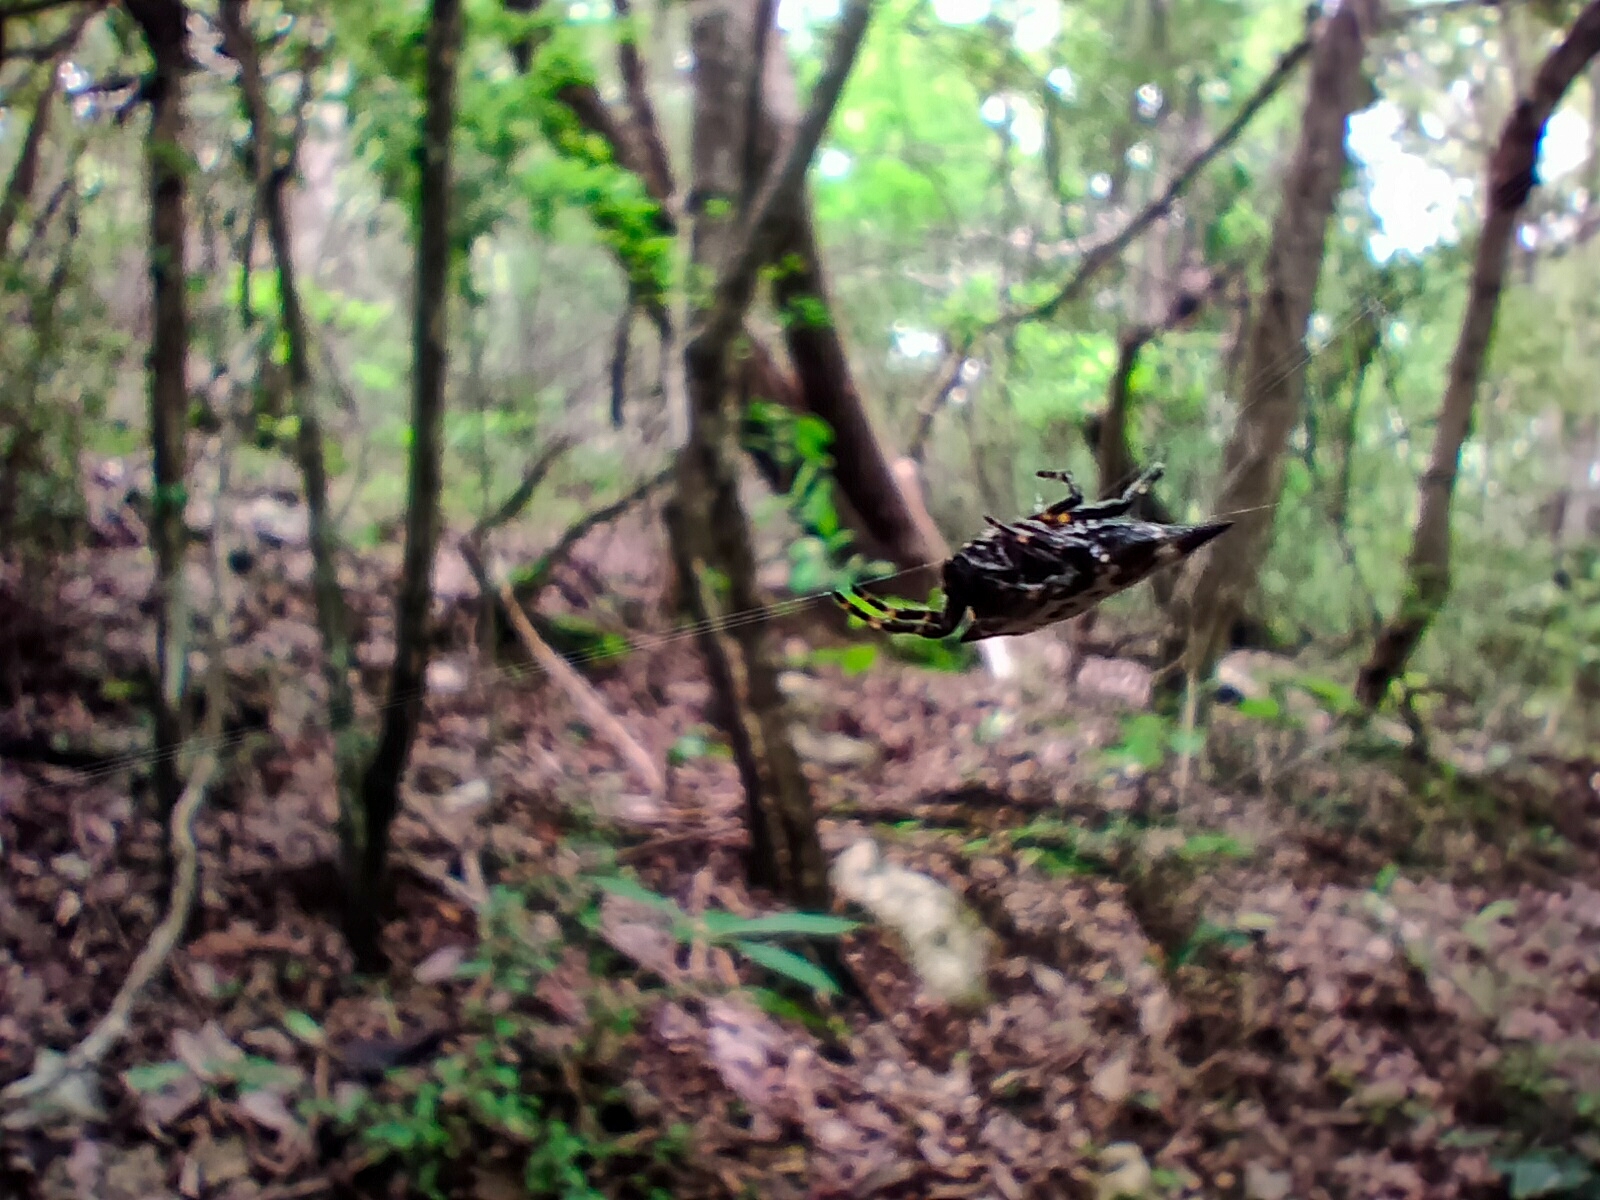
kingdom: Animalia
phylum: Arthropoda
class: Arachnida
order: Araneae
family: Araneidae
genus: Gasteracantha
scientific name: Gasteracantha cancriformis
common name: Orb weavers
